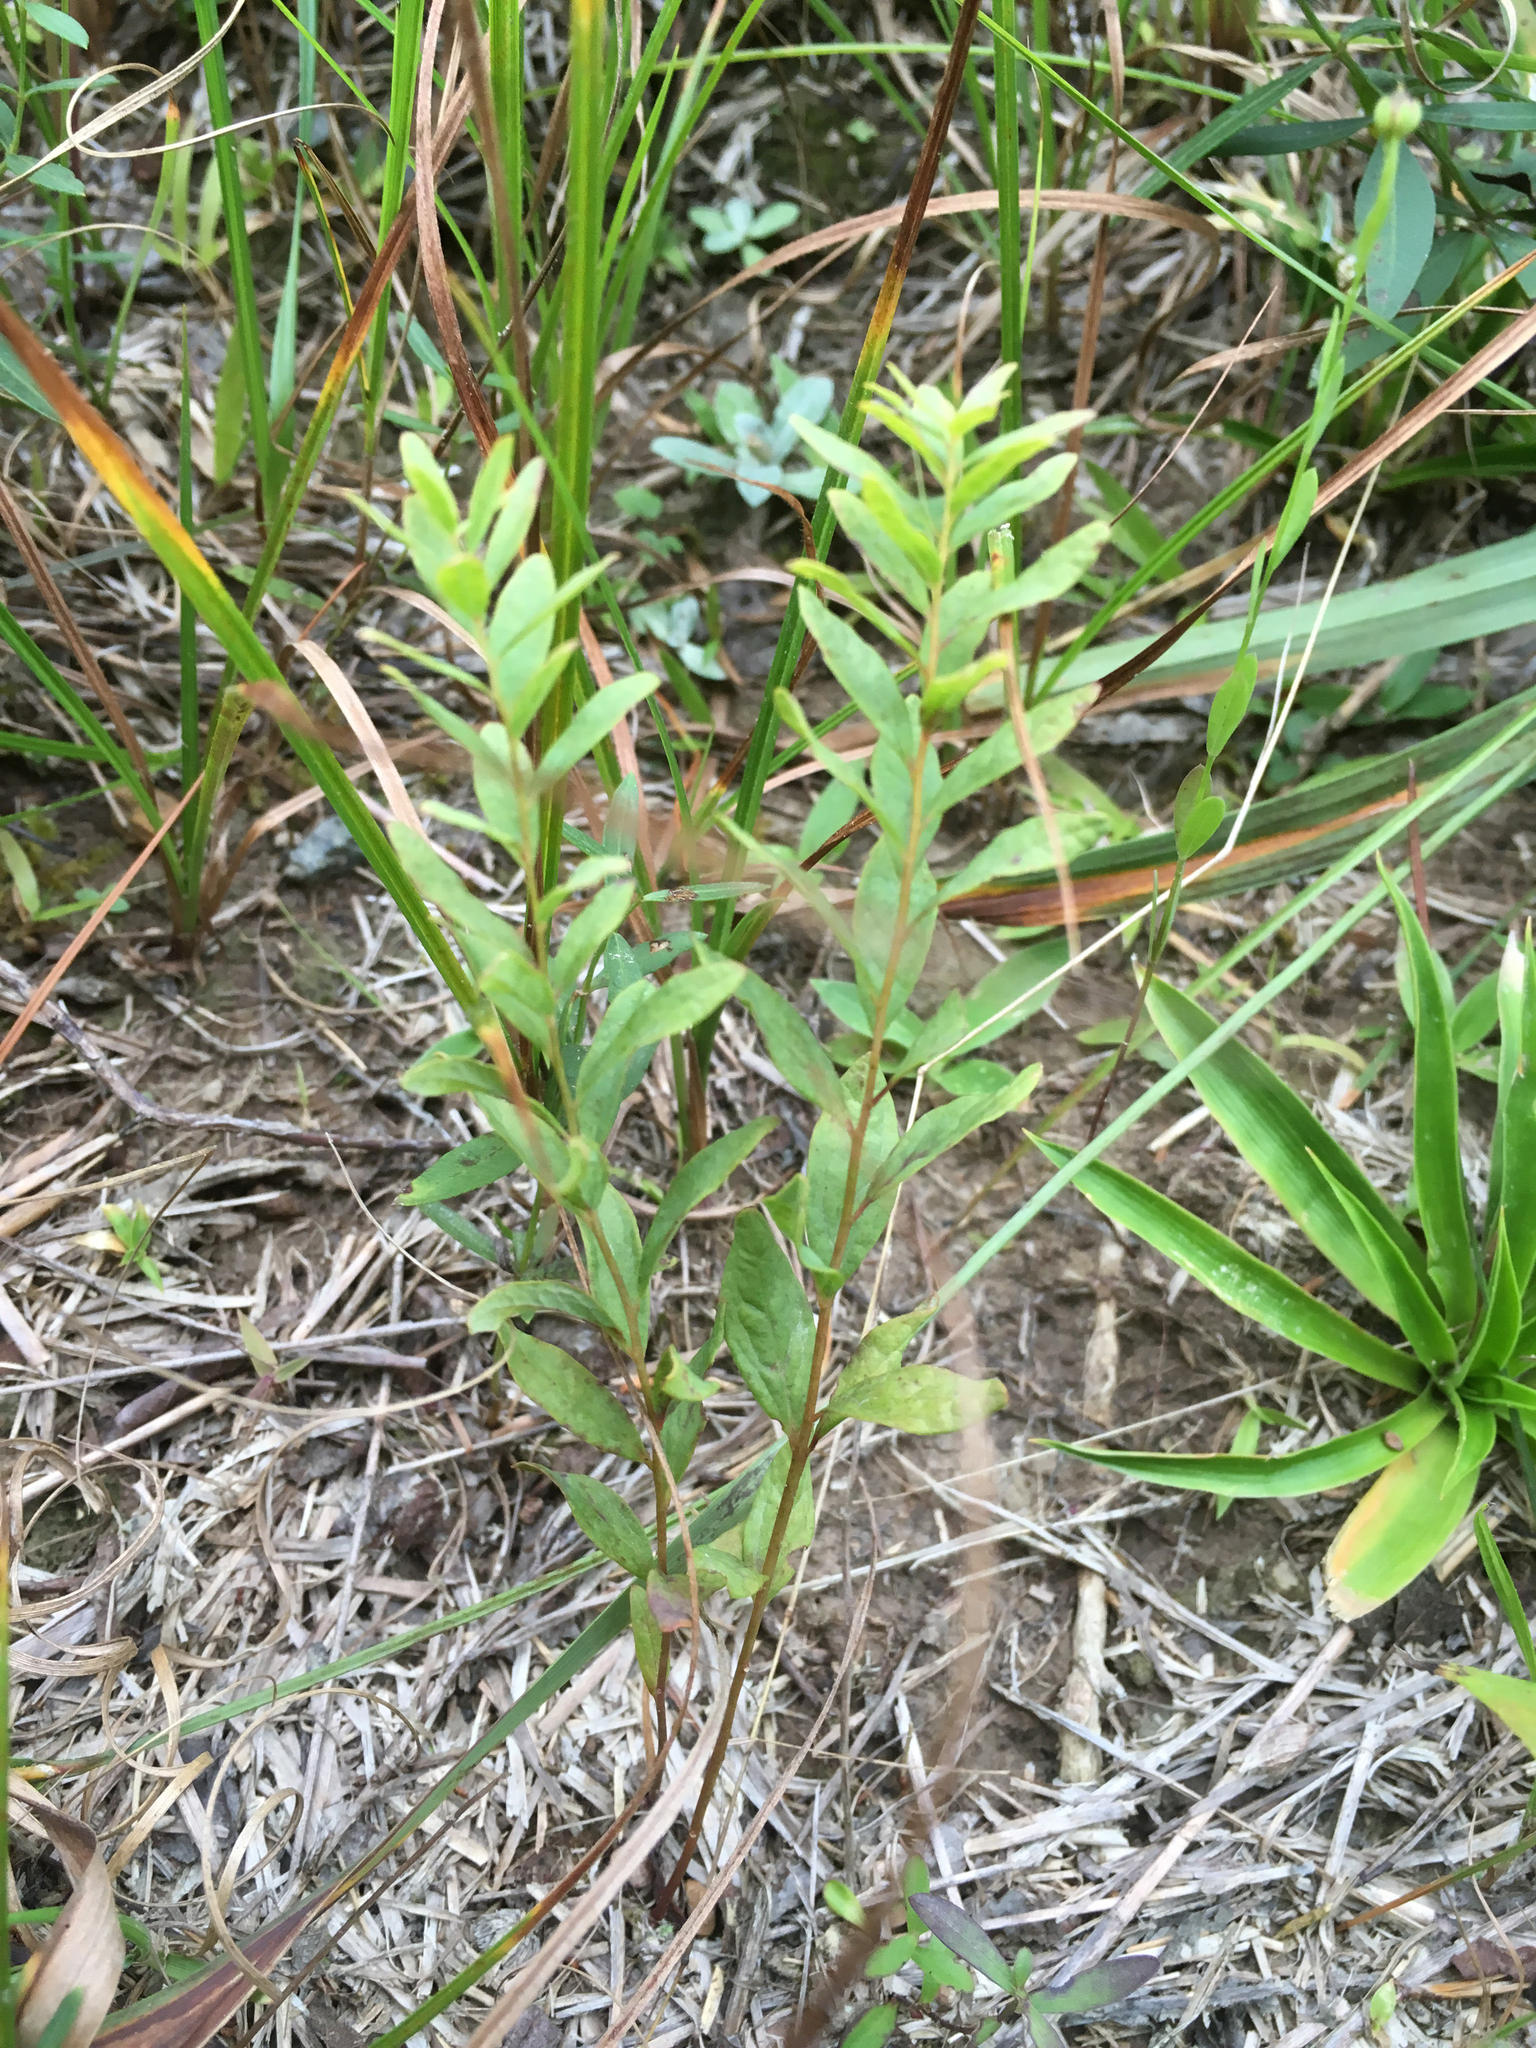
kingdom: Plantae
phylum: Tracheophyta
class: Magnoliopsida
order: Santalales
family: Comandraceae
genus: Comandra
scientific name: Comandra umbellata
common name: Bastard toadflax
